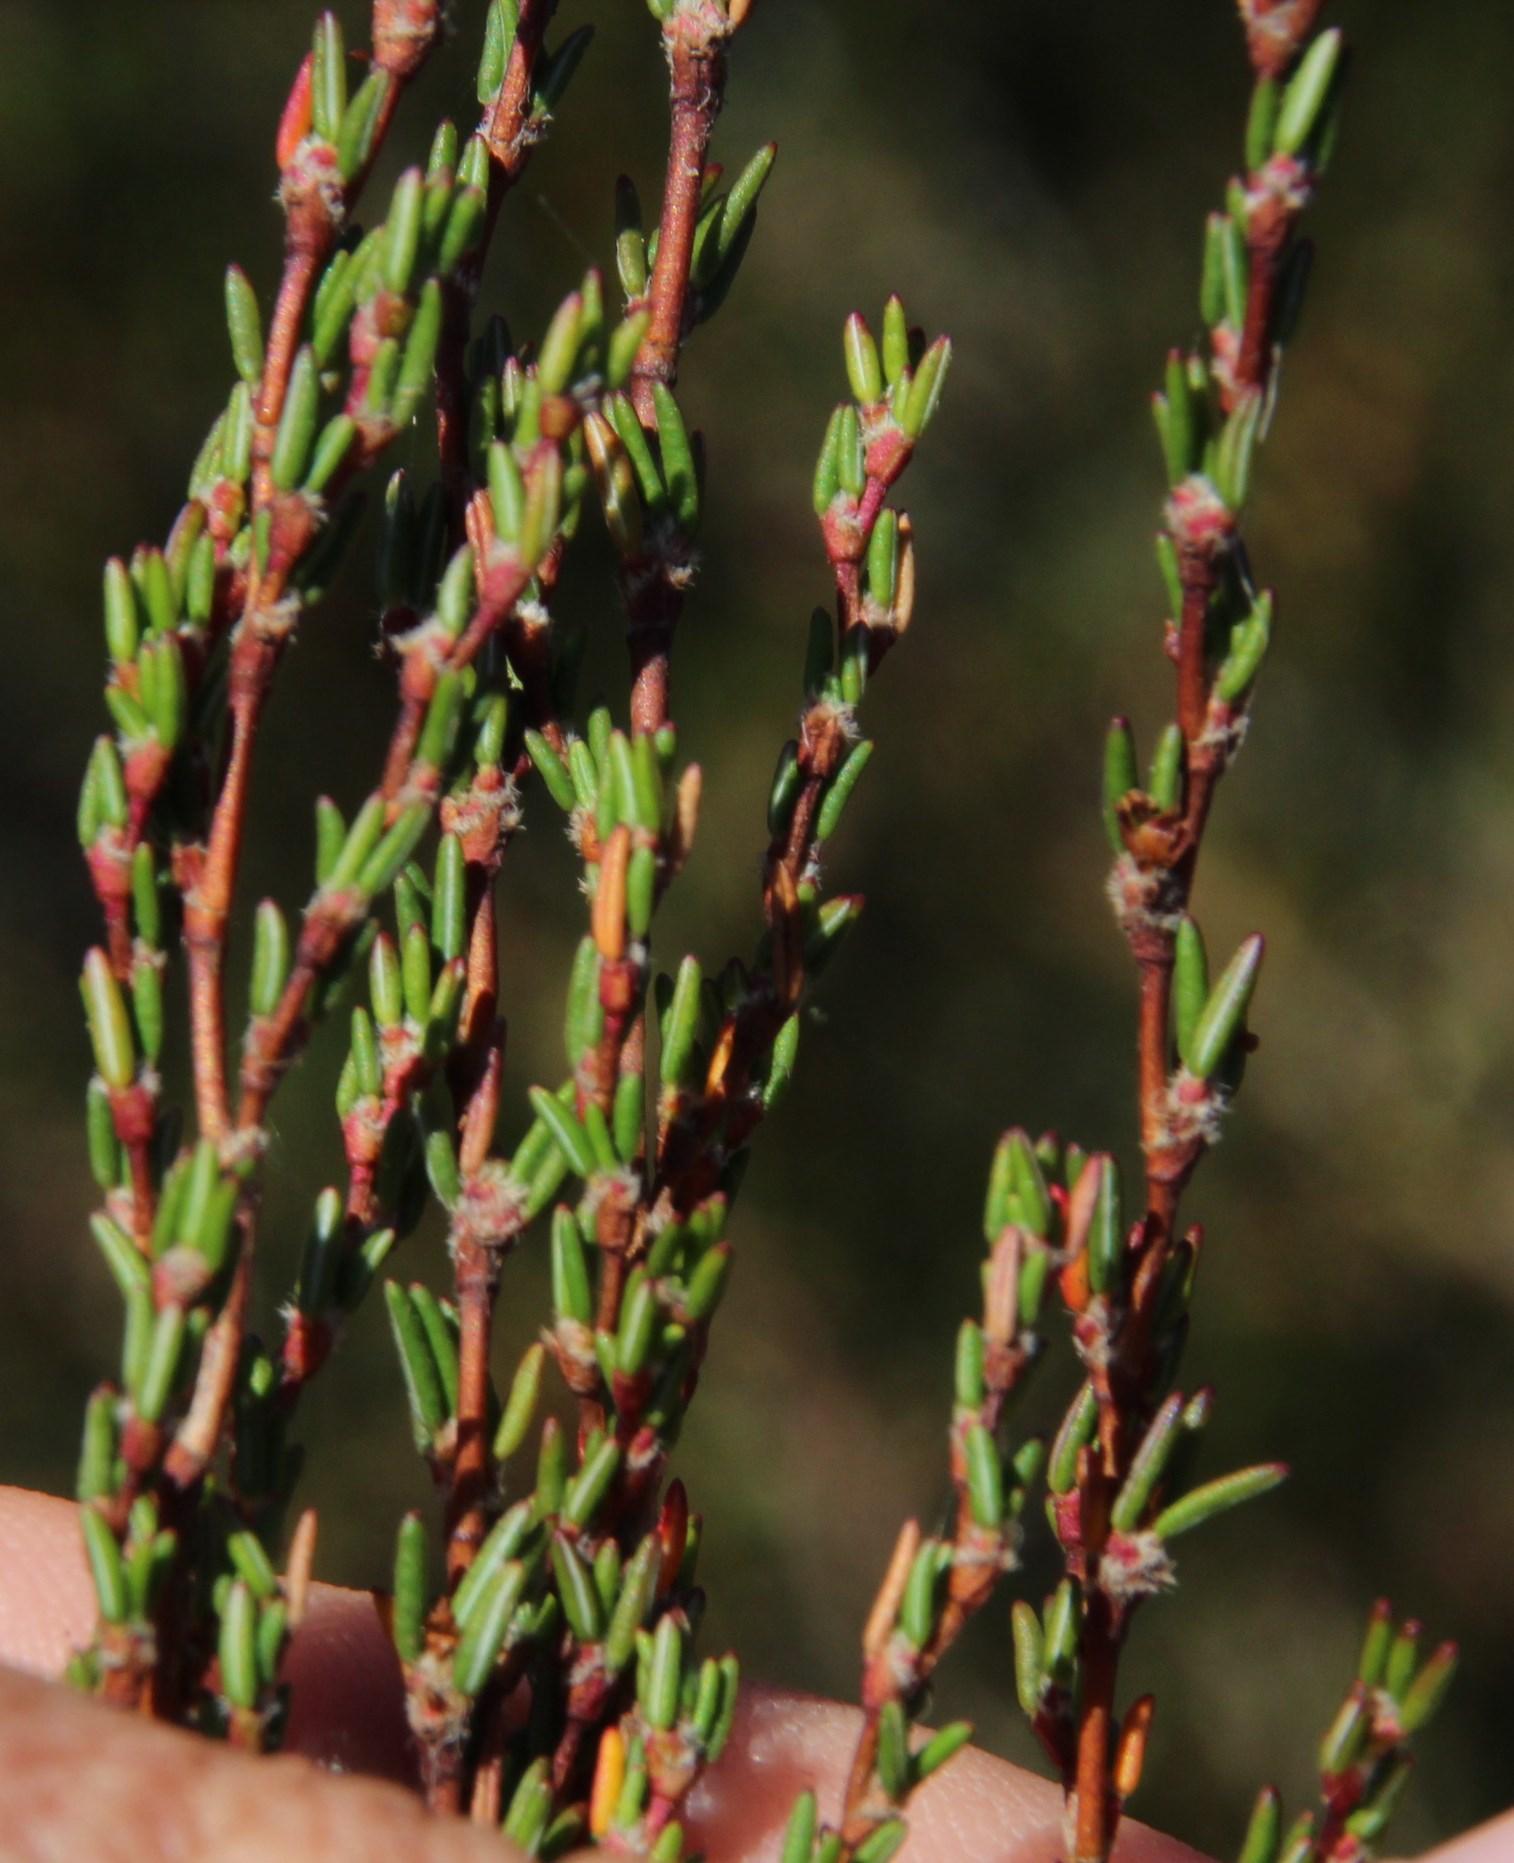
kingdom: Plantae
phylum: Tracheophyta
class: Magnoliopsida
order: Rosales
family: Rosaceae
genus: Cliffortia
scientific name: Cliffortia ericifolia
